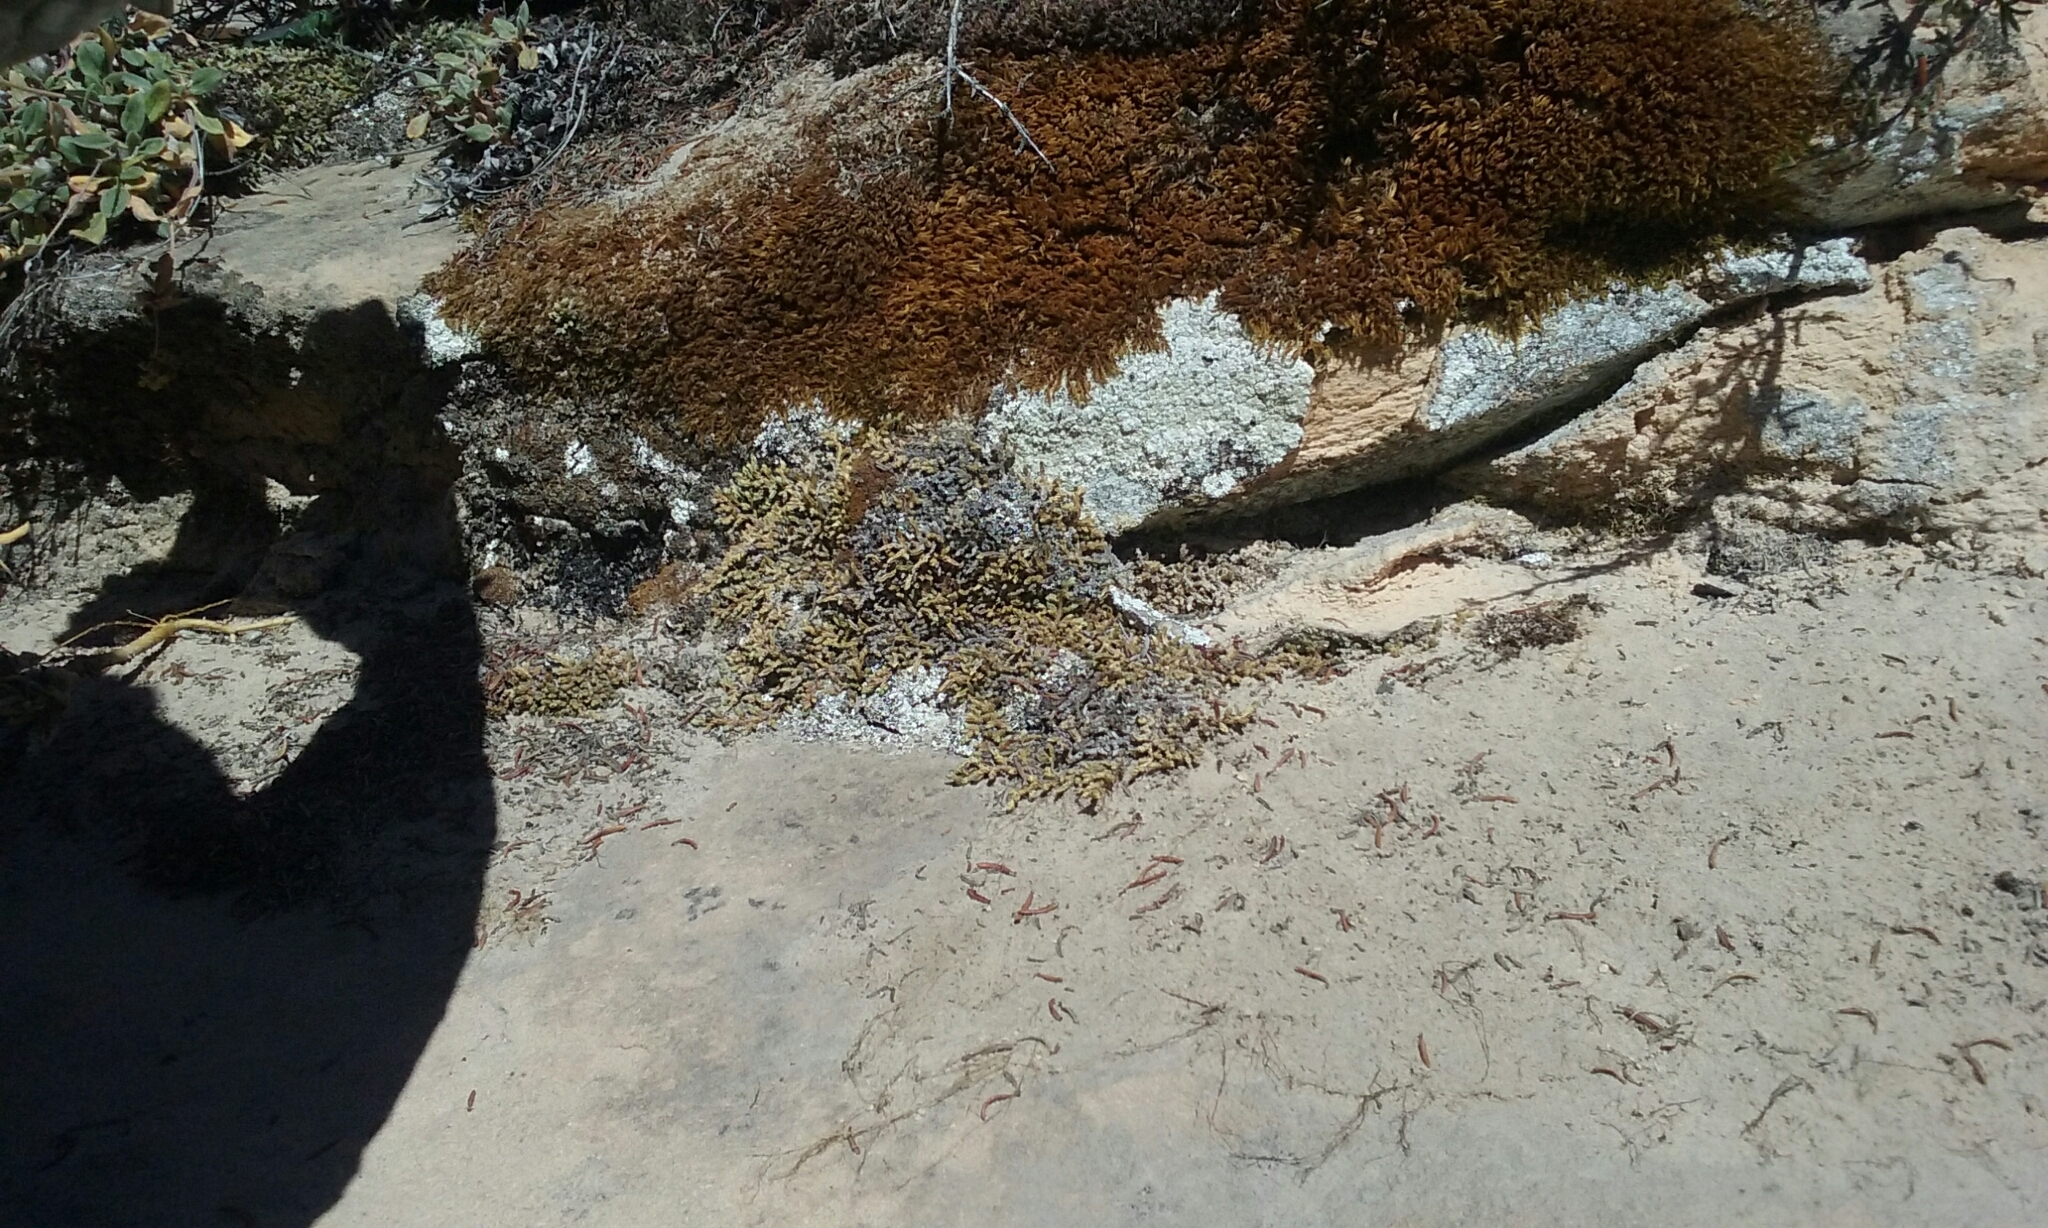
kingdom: Plantae
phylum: Tracheophyta
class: Lycopodiopsida
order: Selaginellales
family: Selaginellaceae
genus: Selaginella
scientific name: Selaginella utahensis
